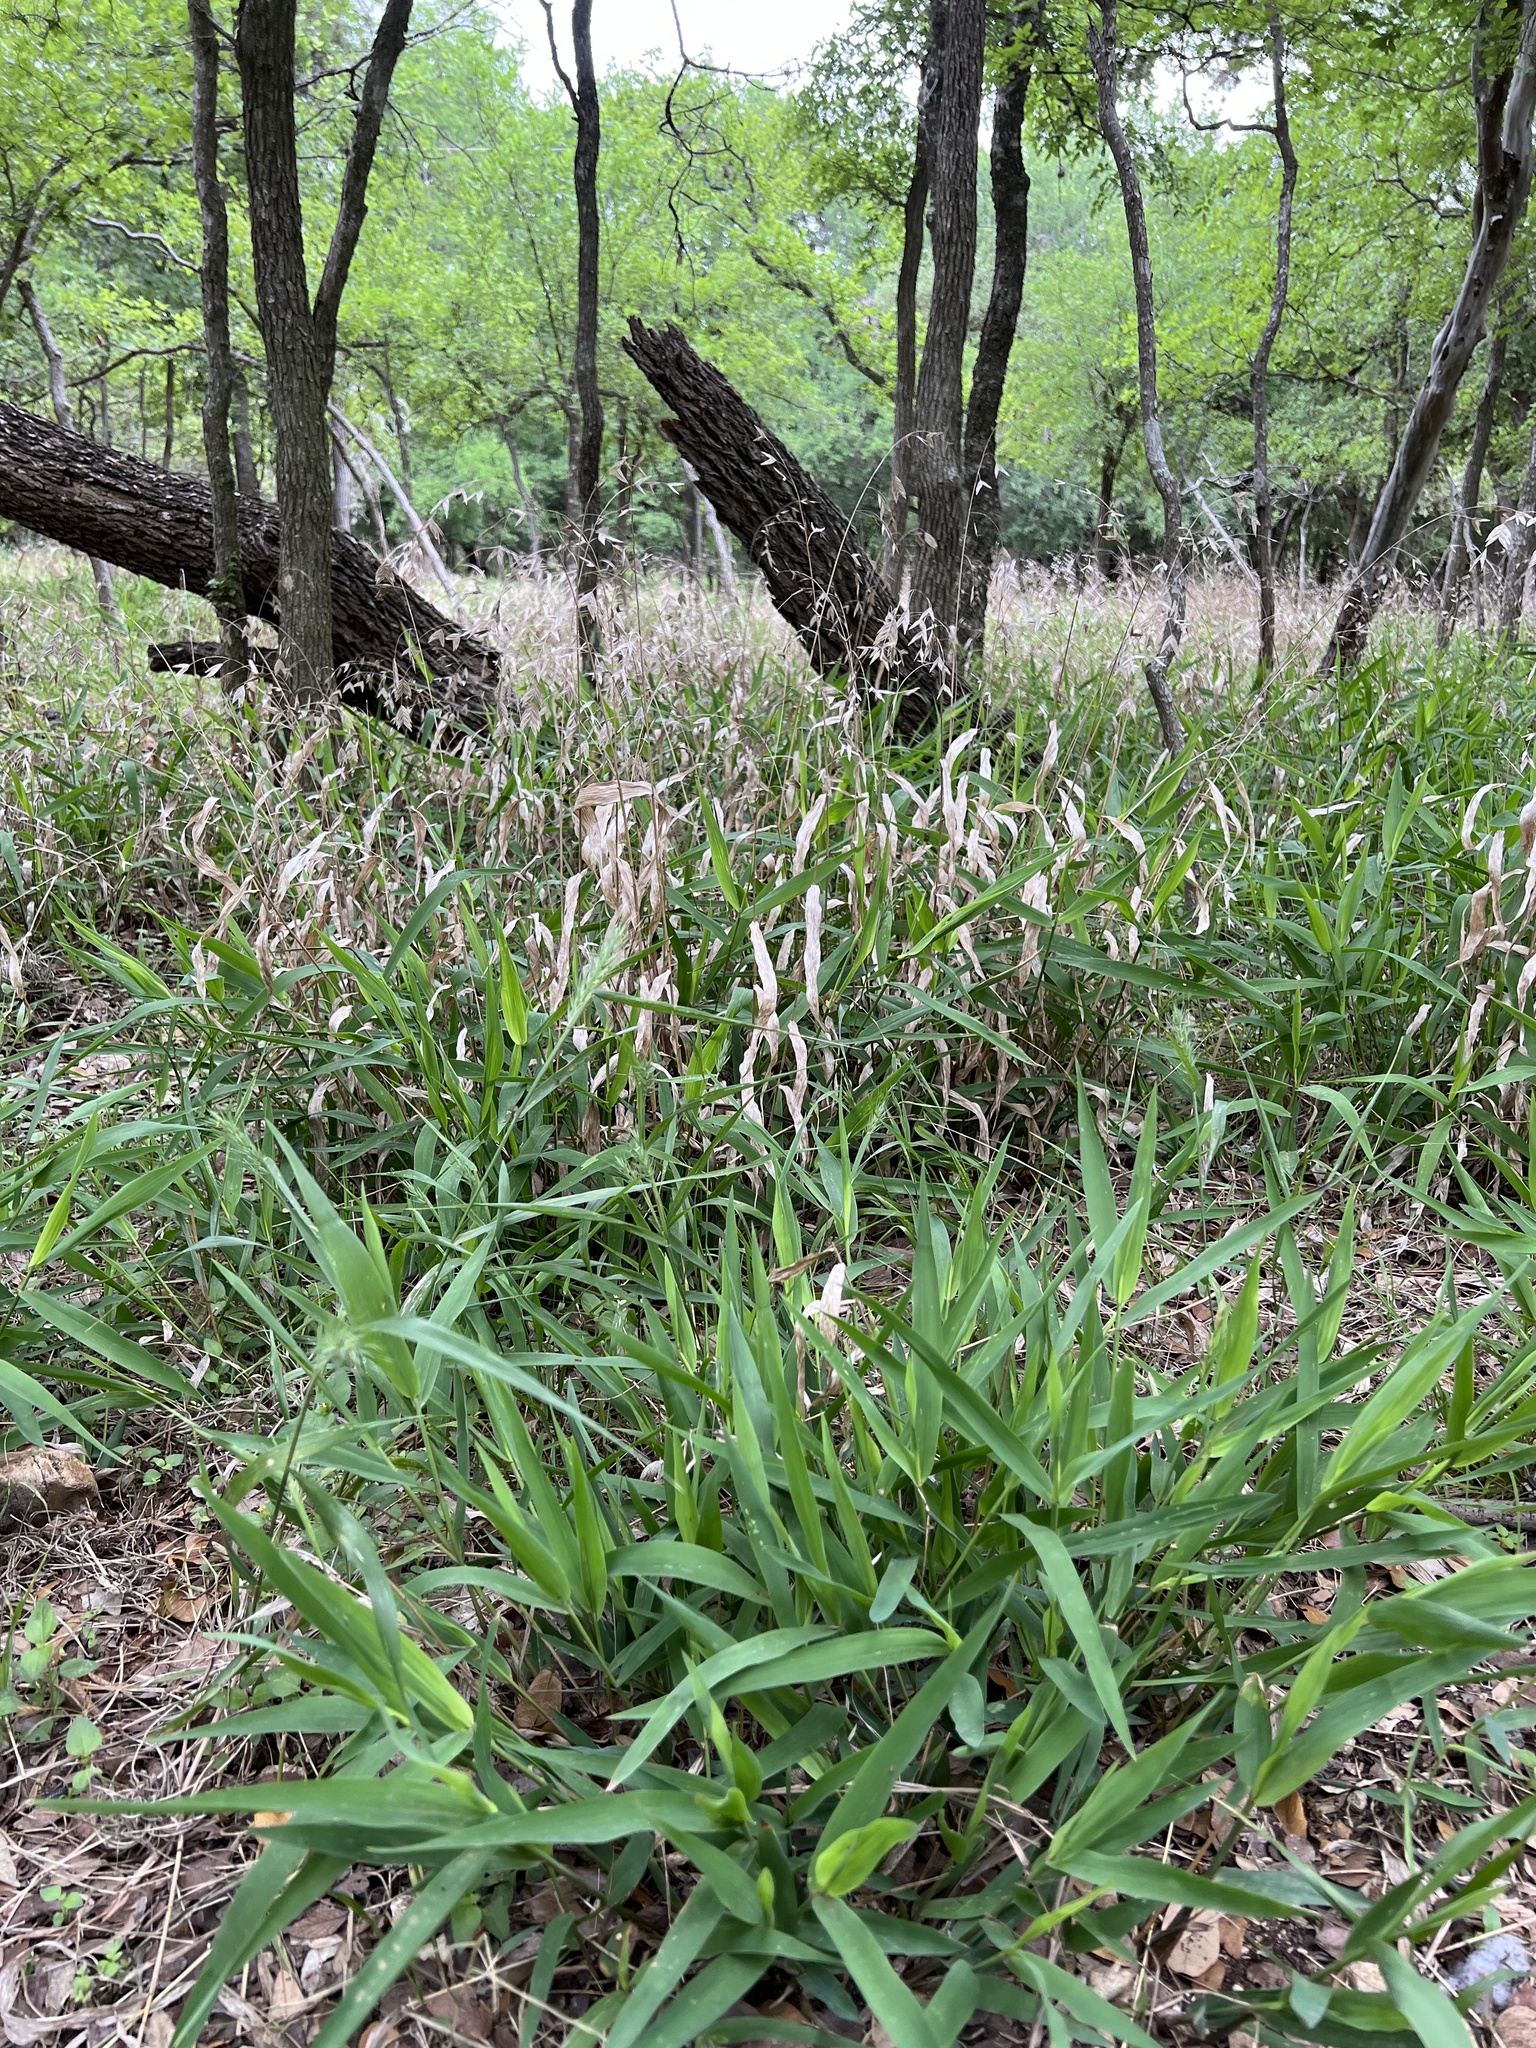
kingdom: Plantae
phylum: Tracheophyta
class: Liliopsida
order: Poales
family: Poaceae
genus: Chasmanthium
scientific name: Chasmanthium latifolium
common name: Broad-leaved chasmanthium
